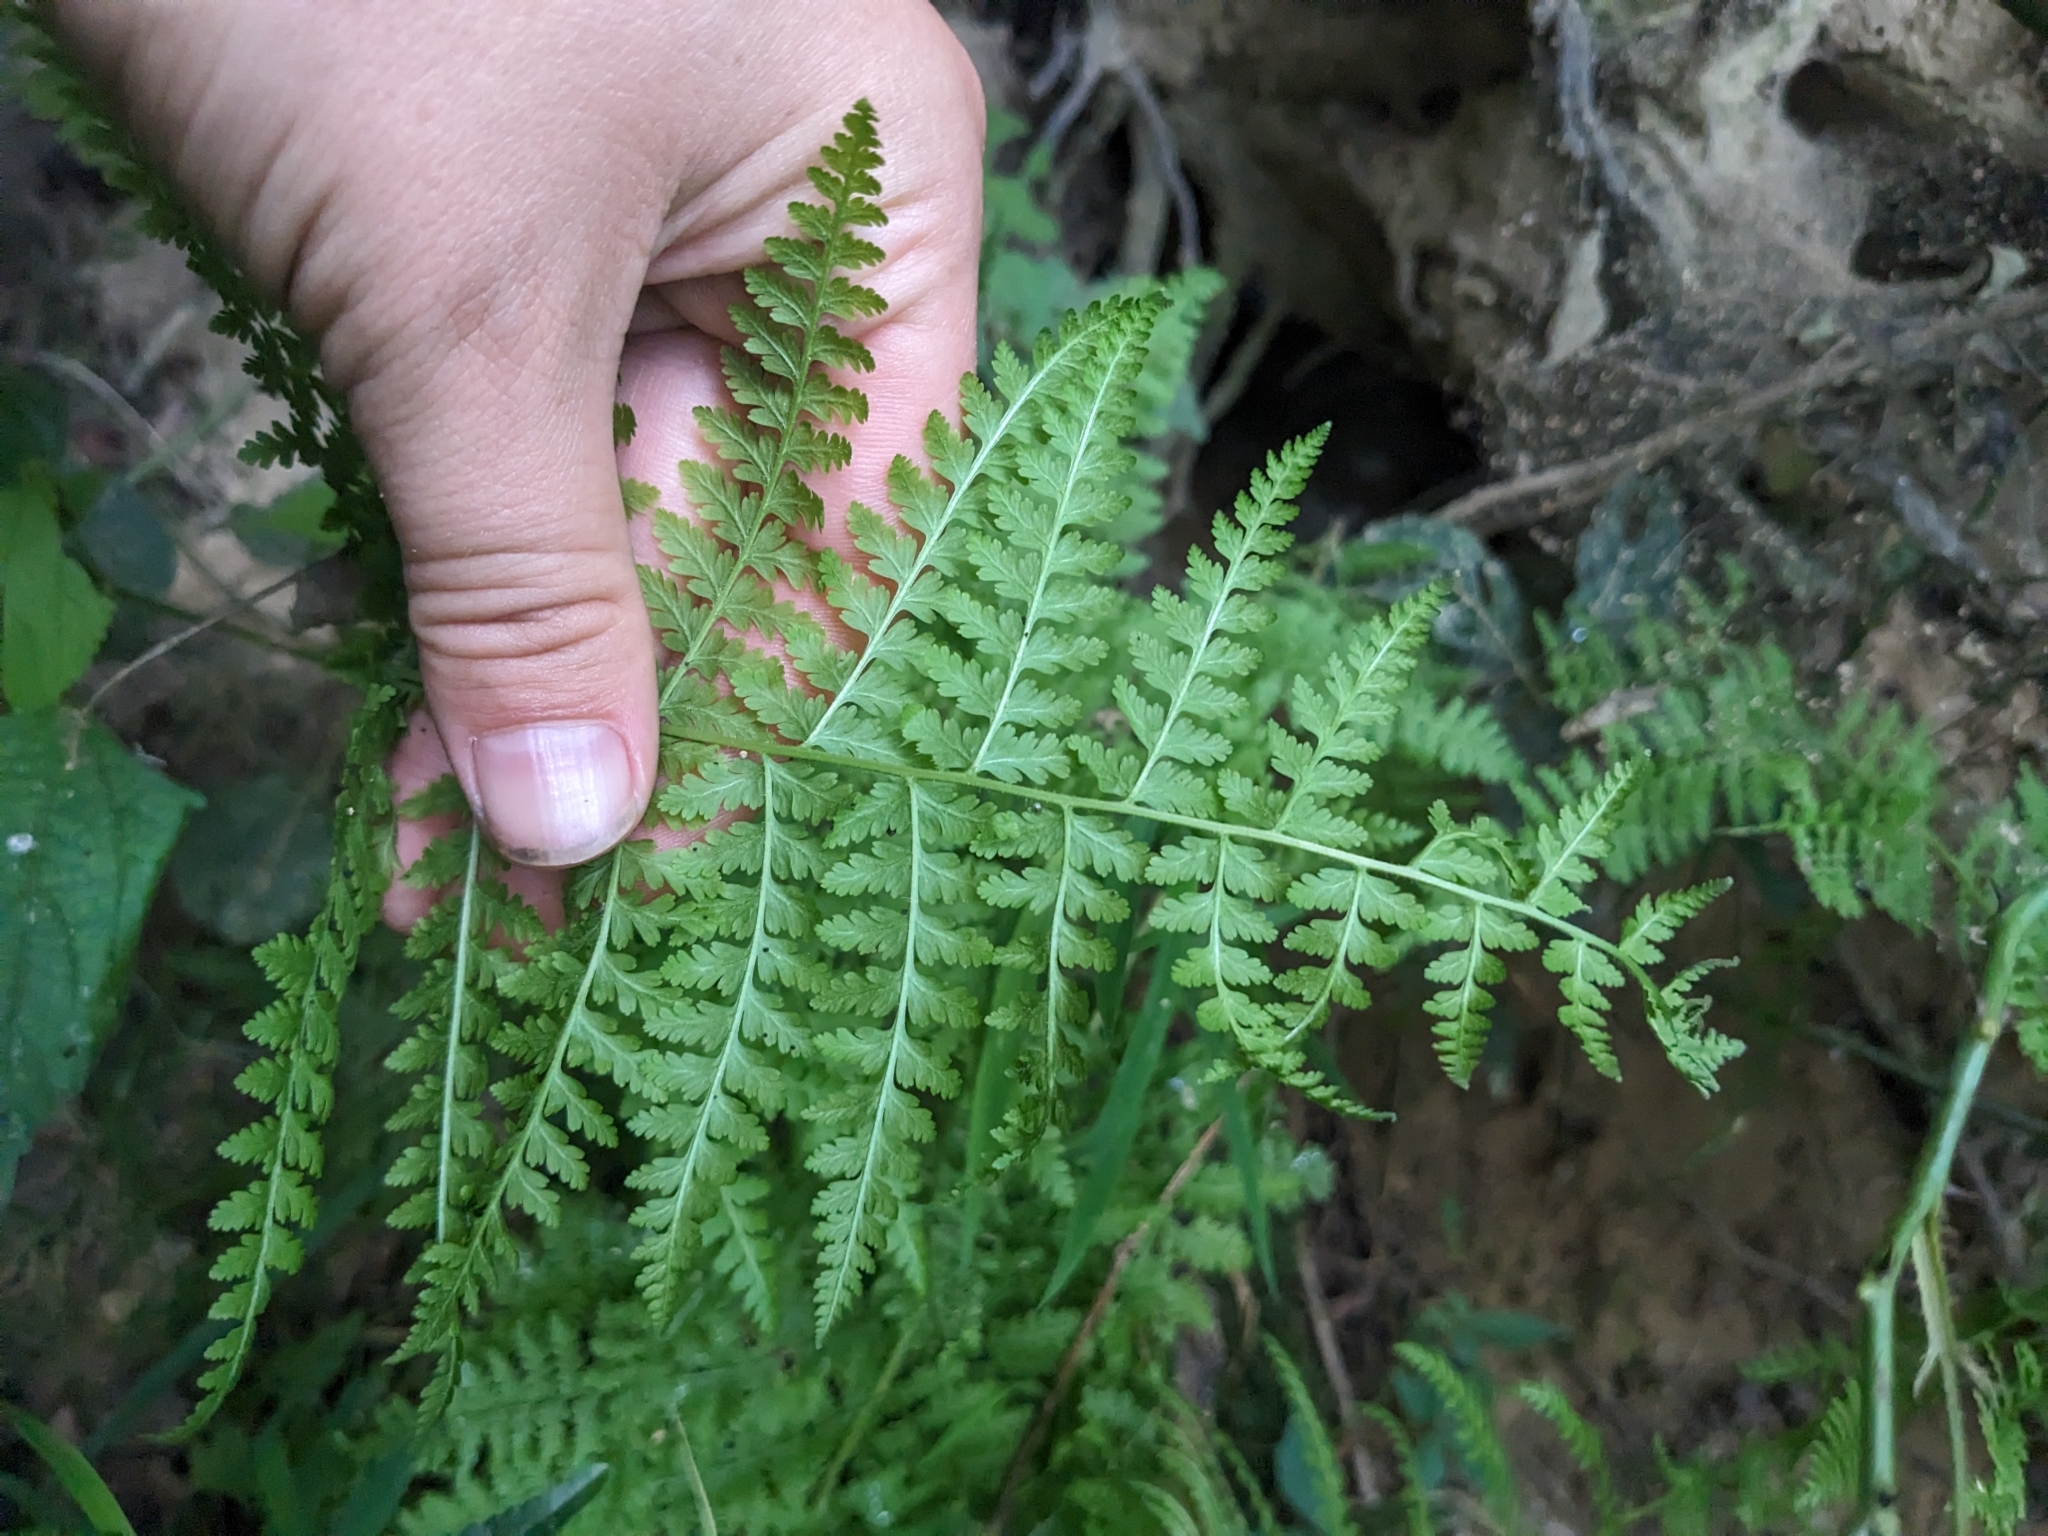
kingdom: Plantae
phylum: Tracheophyta
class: Polypodiopsida
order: Polypodiales
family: Dennstaedtiaceae
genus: Sitobolium
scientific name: Sitobolium punctilobum
